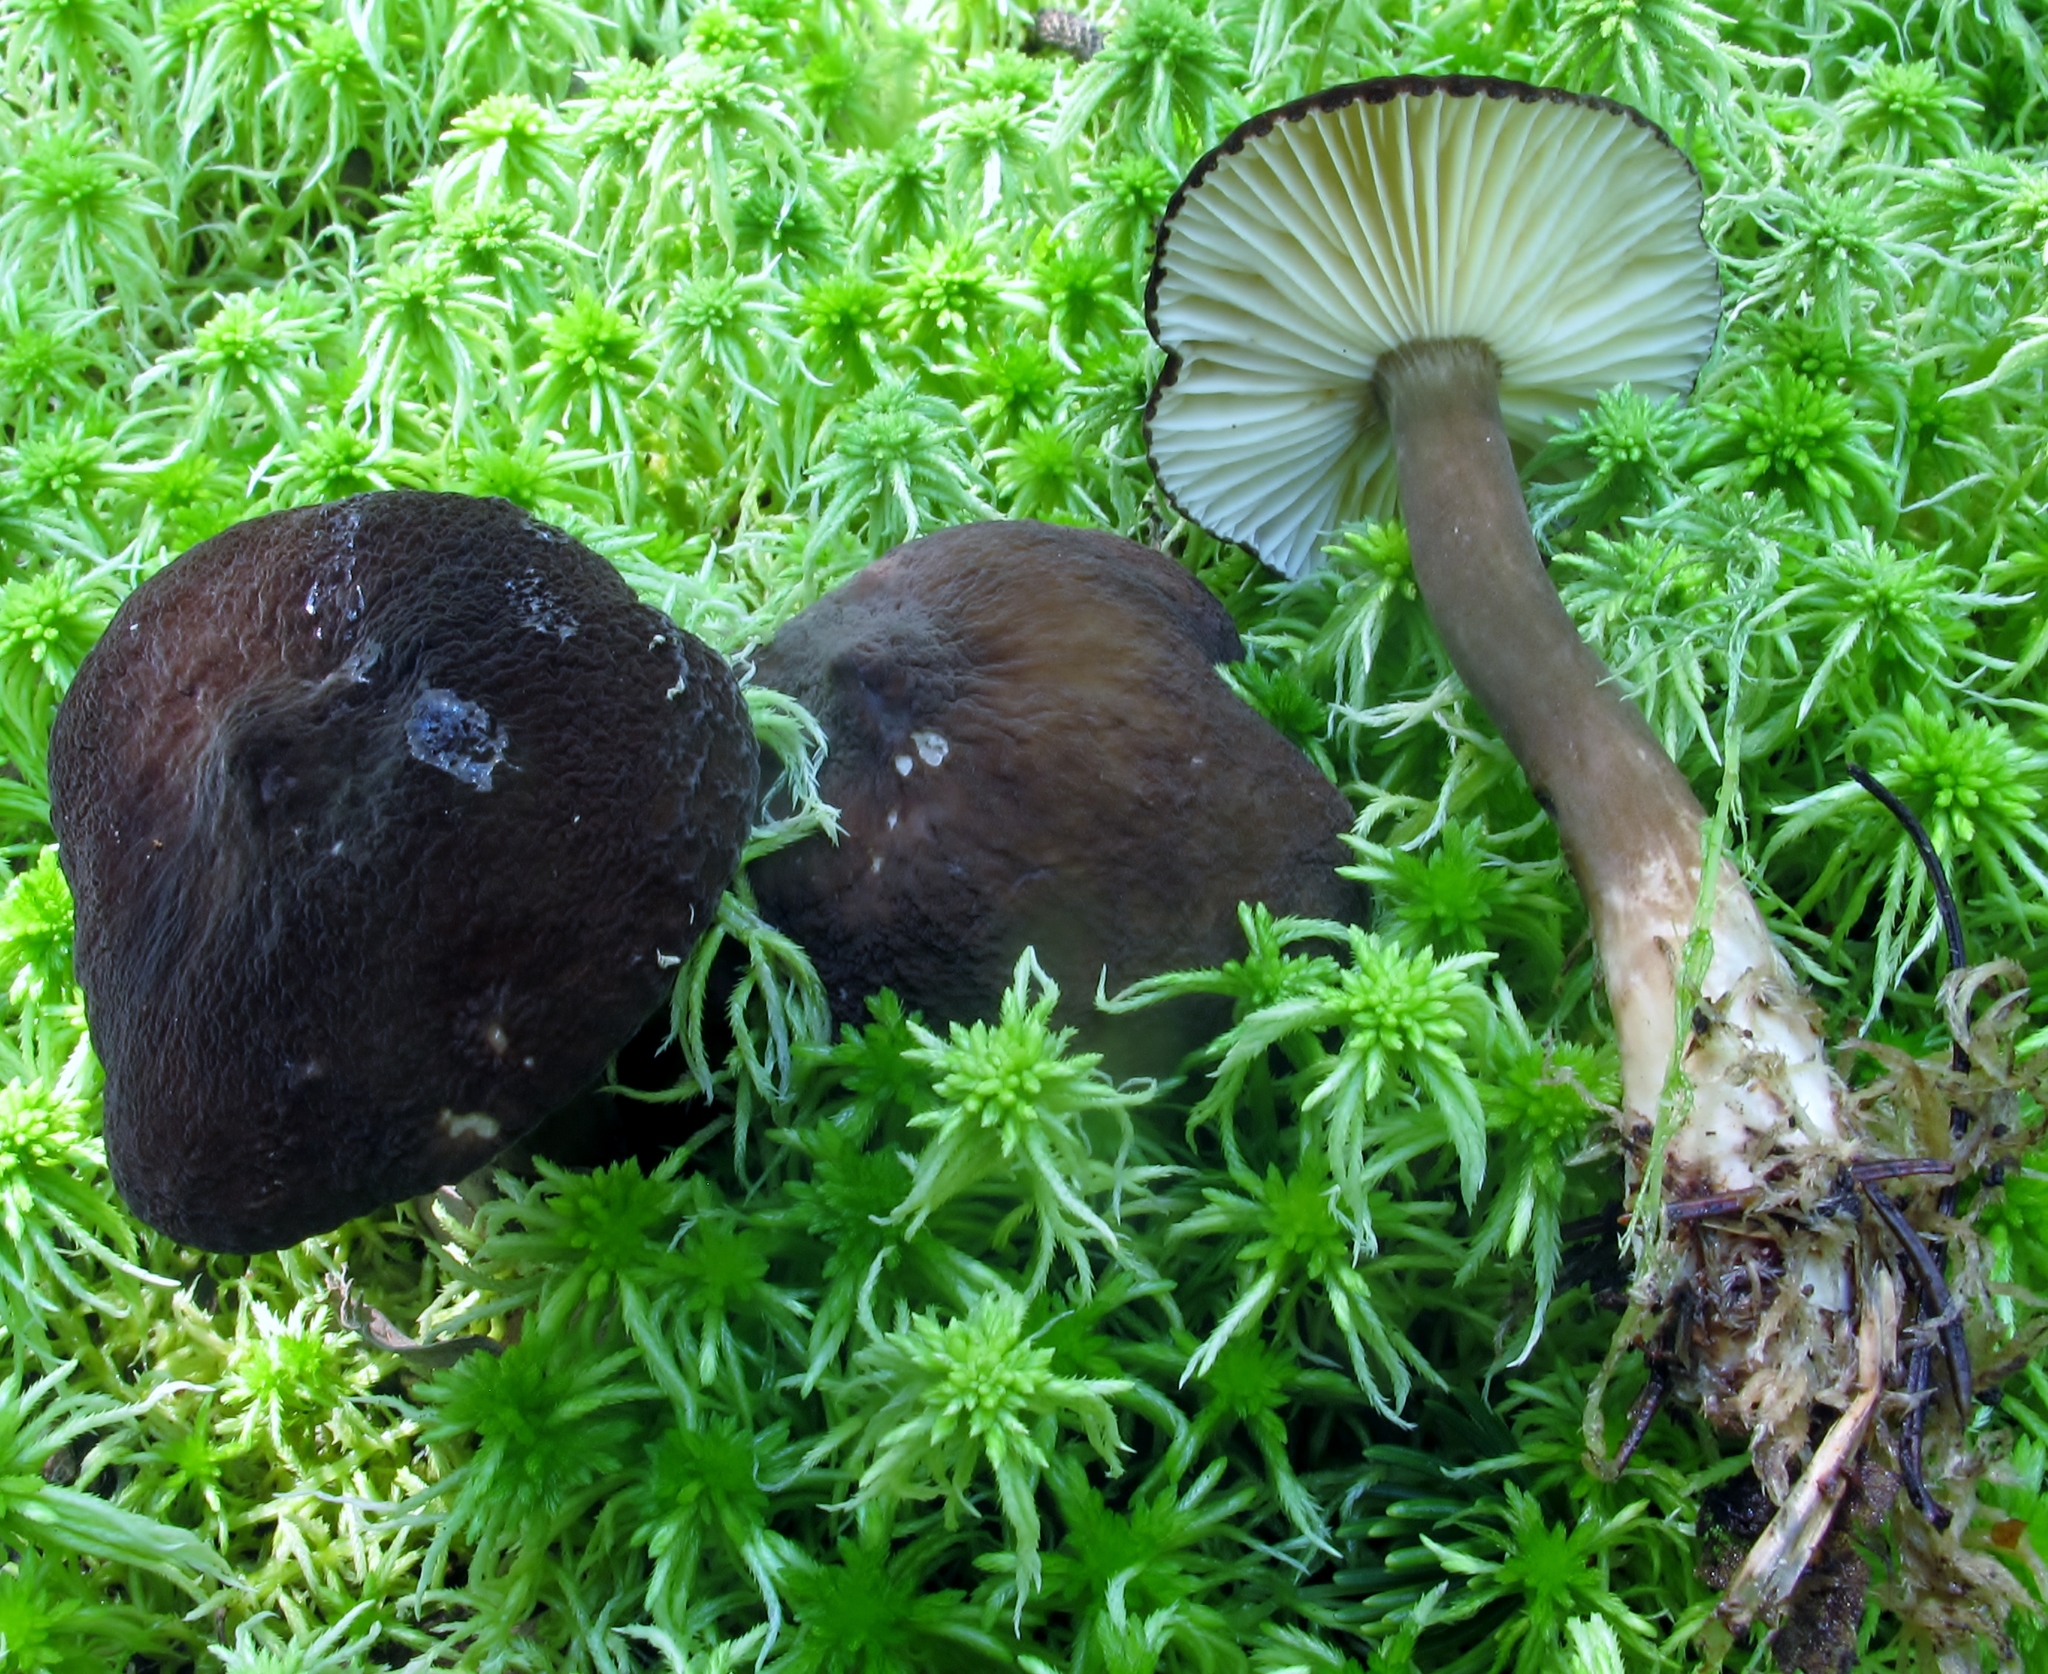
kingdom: Fungi
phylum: Basidiomycota
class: Agaricomycetes
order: Russulales
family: Russulaceae
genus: Lactarius
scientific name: Lactarius lignyotus
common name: Velvet milkcap
